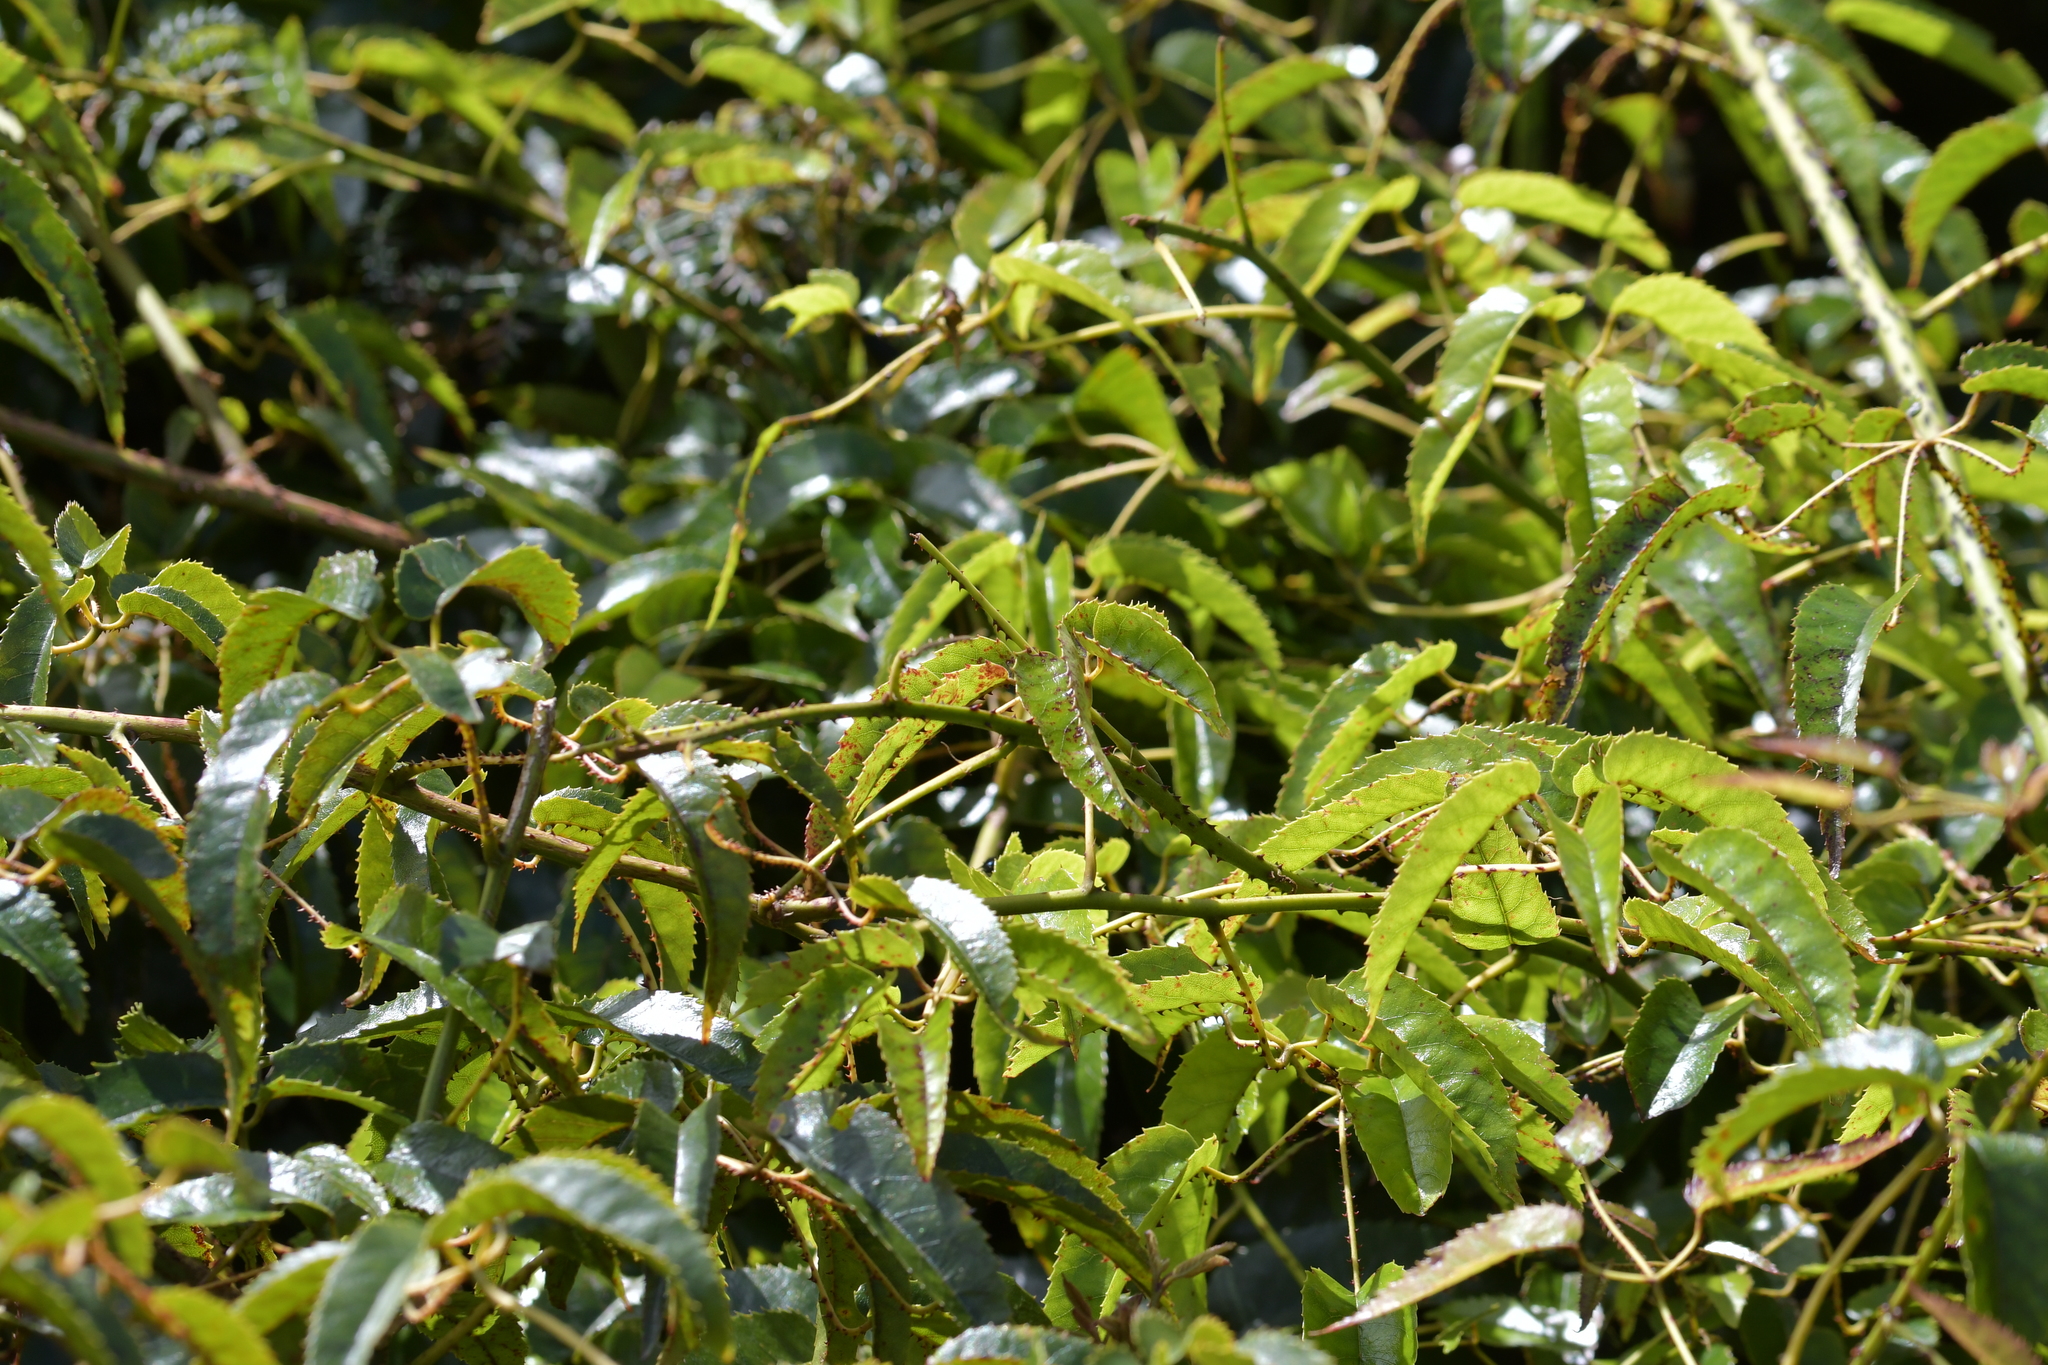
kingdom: Plantae
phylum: Tracheophyta
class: Magnoliopsida
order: Rosales
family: Rosaceae
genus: Rubus
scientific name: Rubus cissoides
